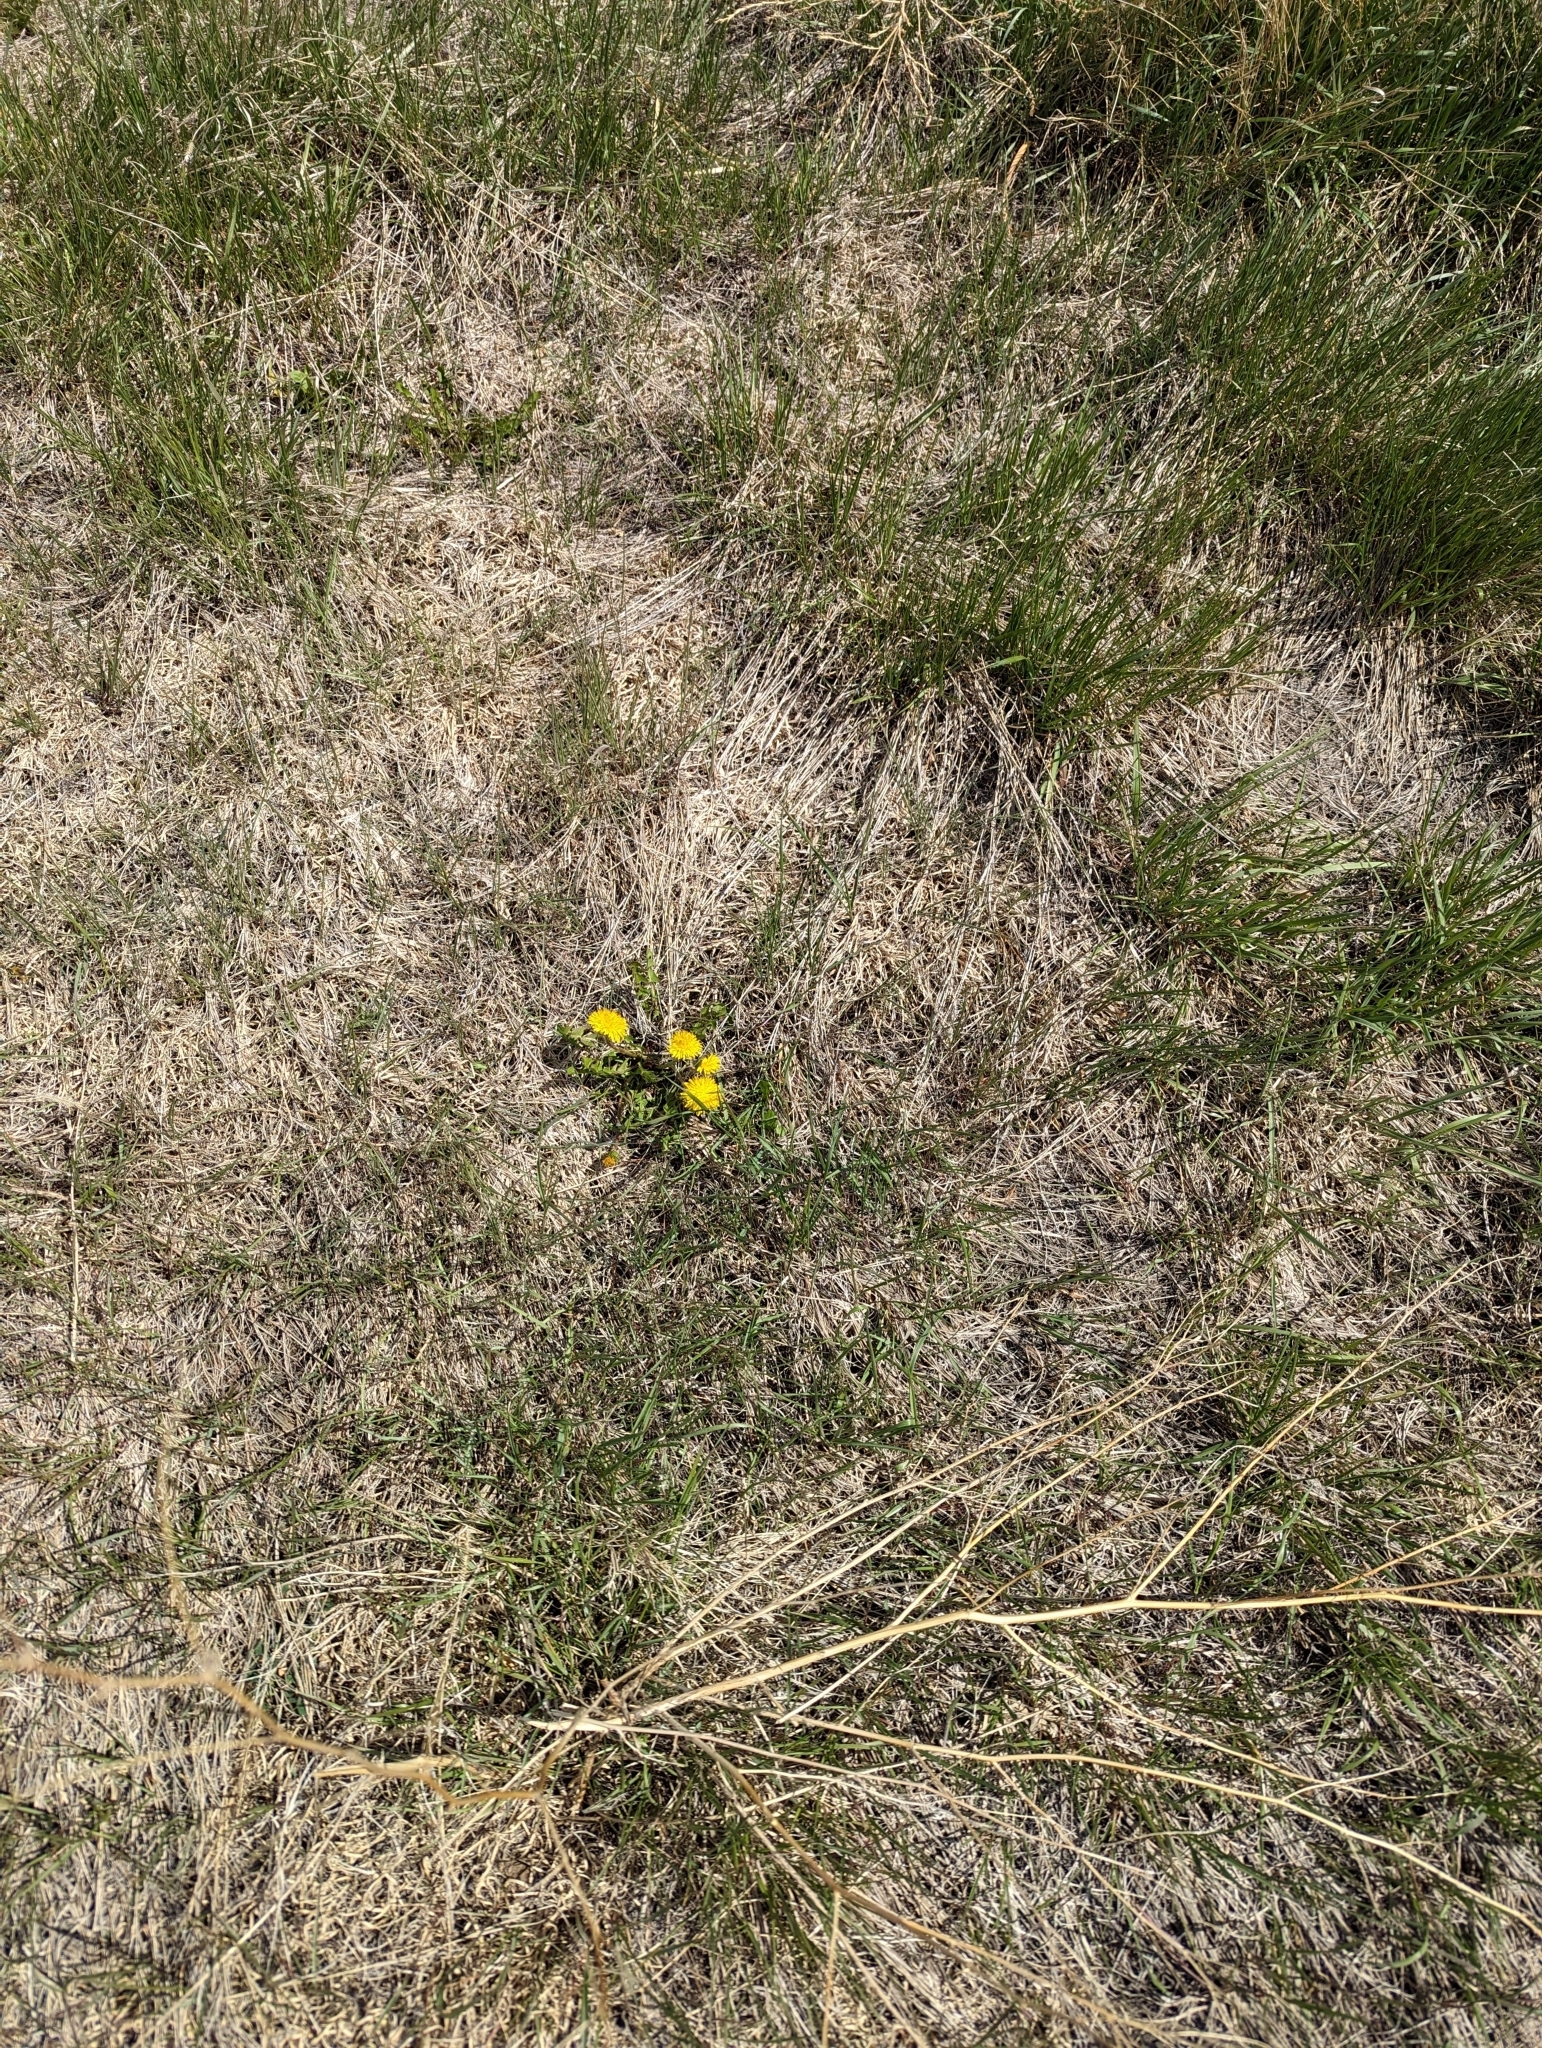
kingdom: Plantae
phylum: Tracheophyta
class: Magnoliopsida
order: Asterales
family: Asteraceae
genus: Taraxacum
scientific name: Taraxacum officinale
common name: Common dandelion
